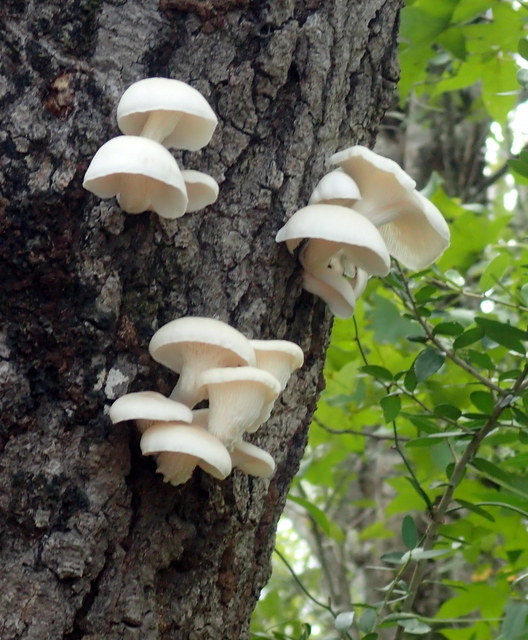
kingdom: Fungi
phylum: Basidiomycota
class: Agaricomycetes
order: Agaricales
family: Pleurotaceae
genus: Pleurotus
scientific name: Pleurotus pulmonarius
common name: Pale oyster
